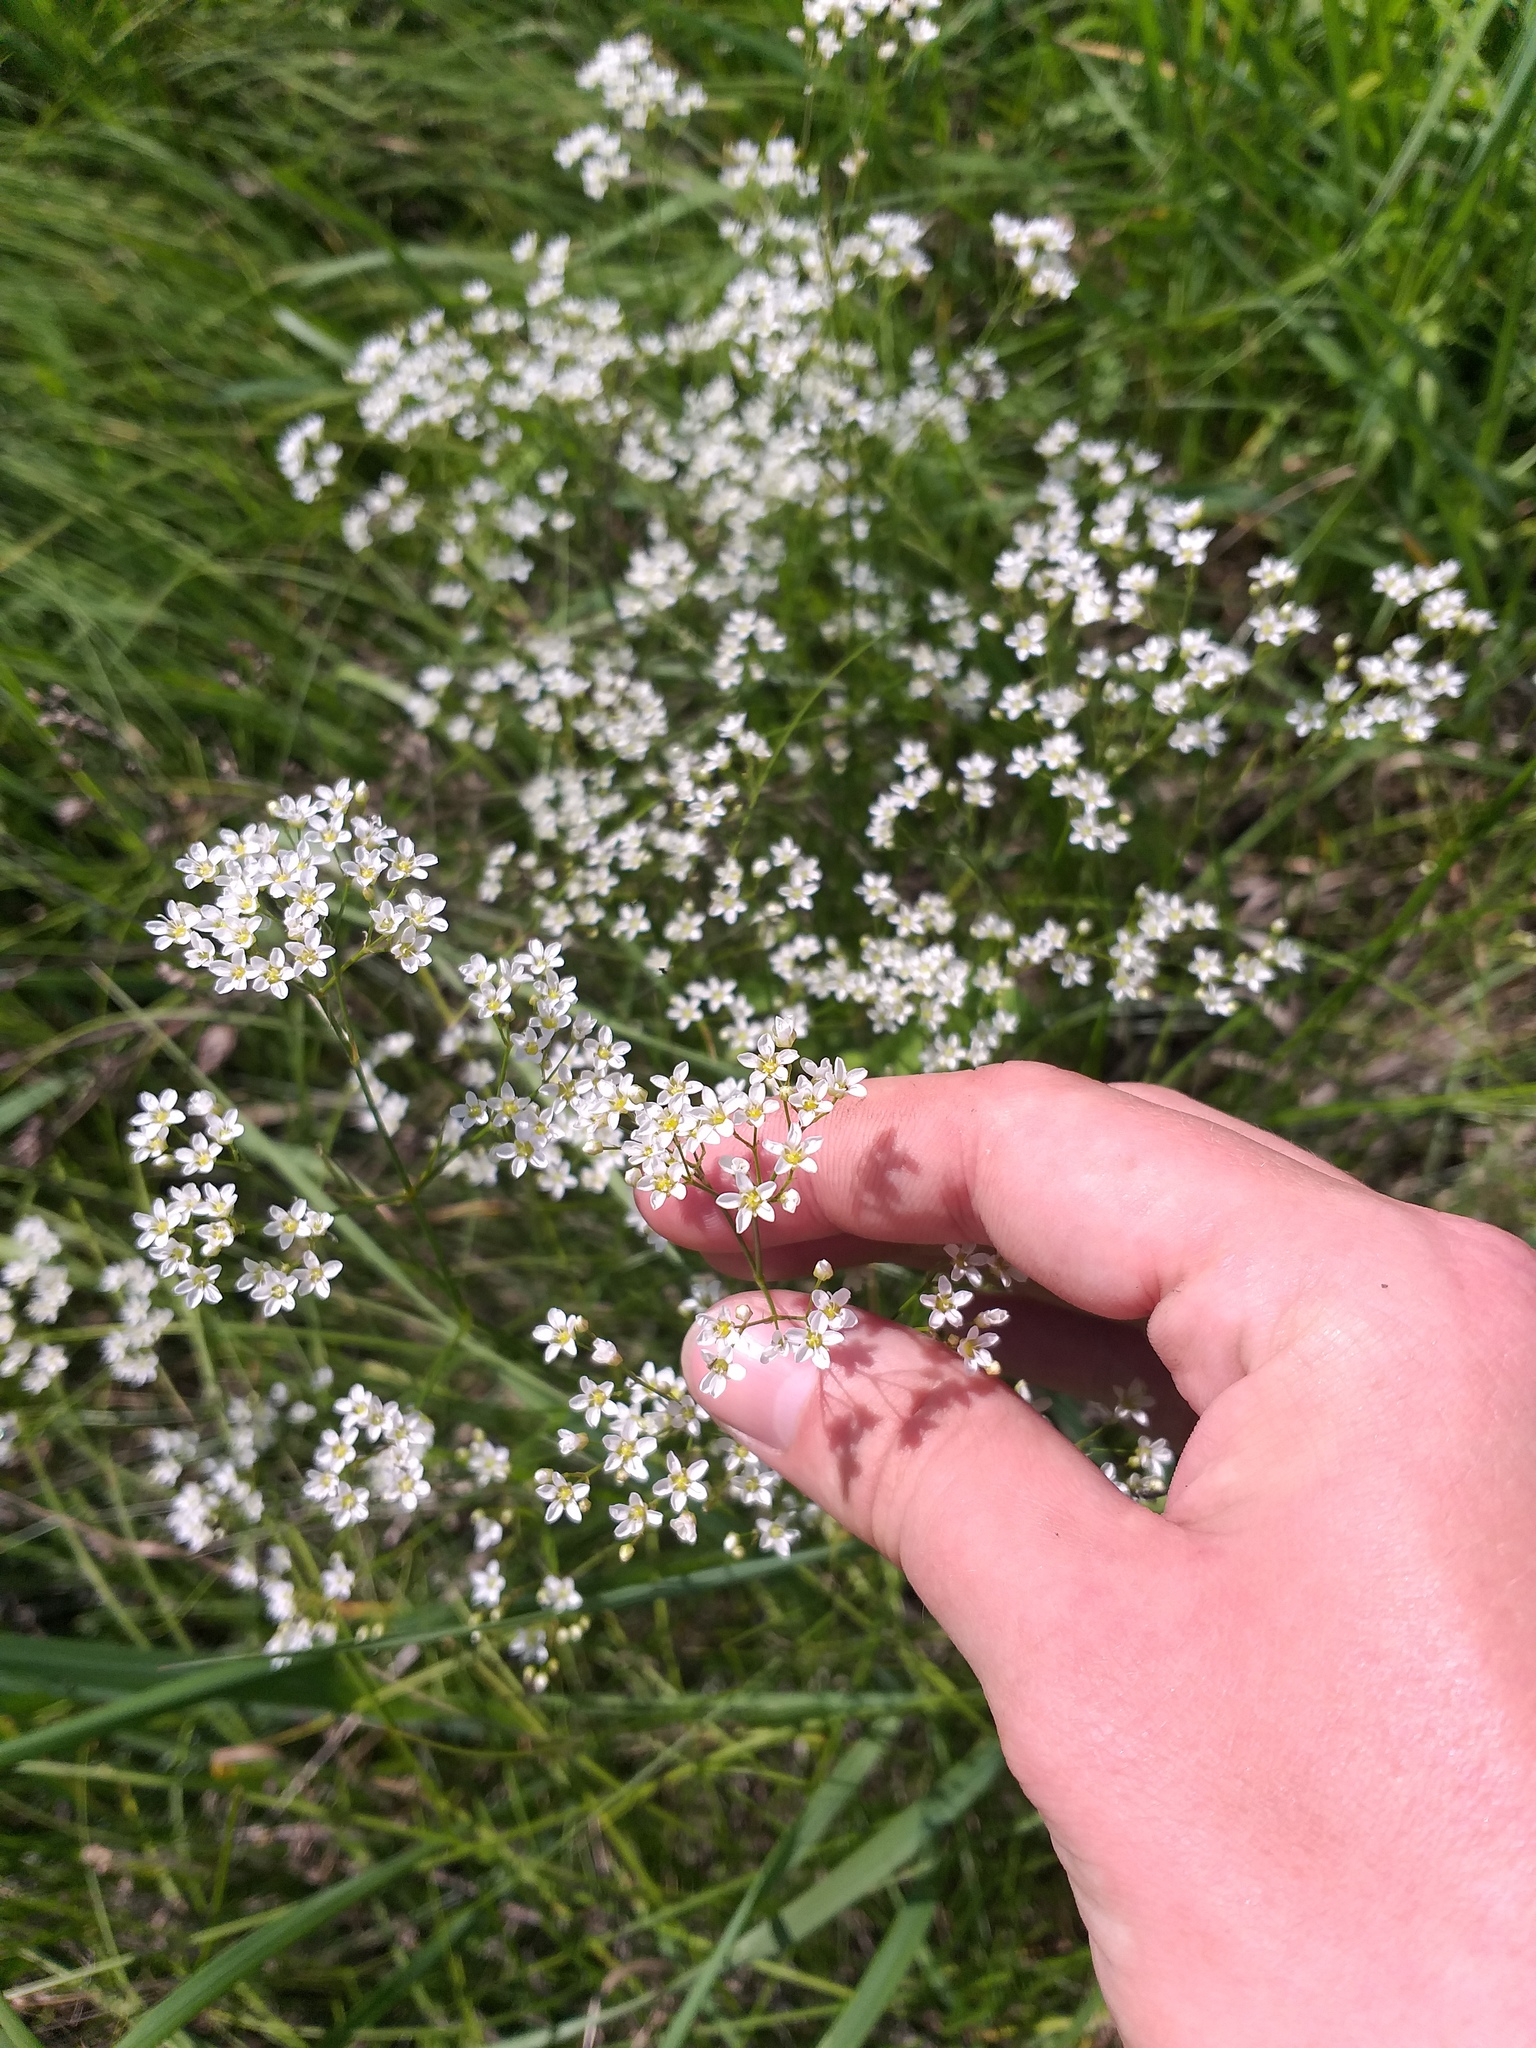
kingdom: Plantae
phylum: Tracheophyta
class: Magnoliopsida
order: Caryophyllales
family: Caryophyllaceae
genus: Eremogone
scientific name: Eremogone longifolia
